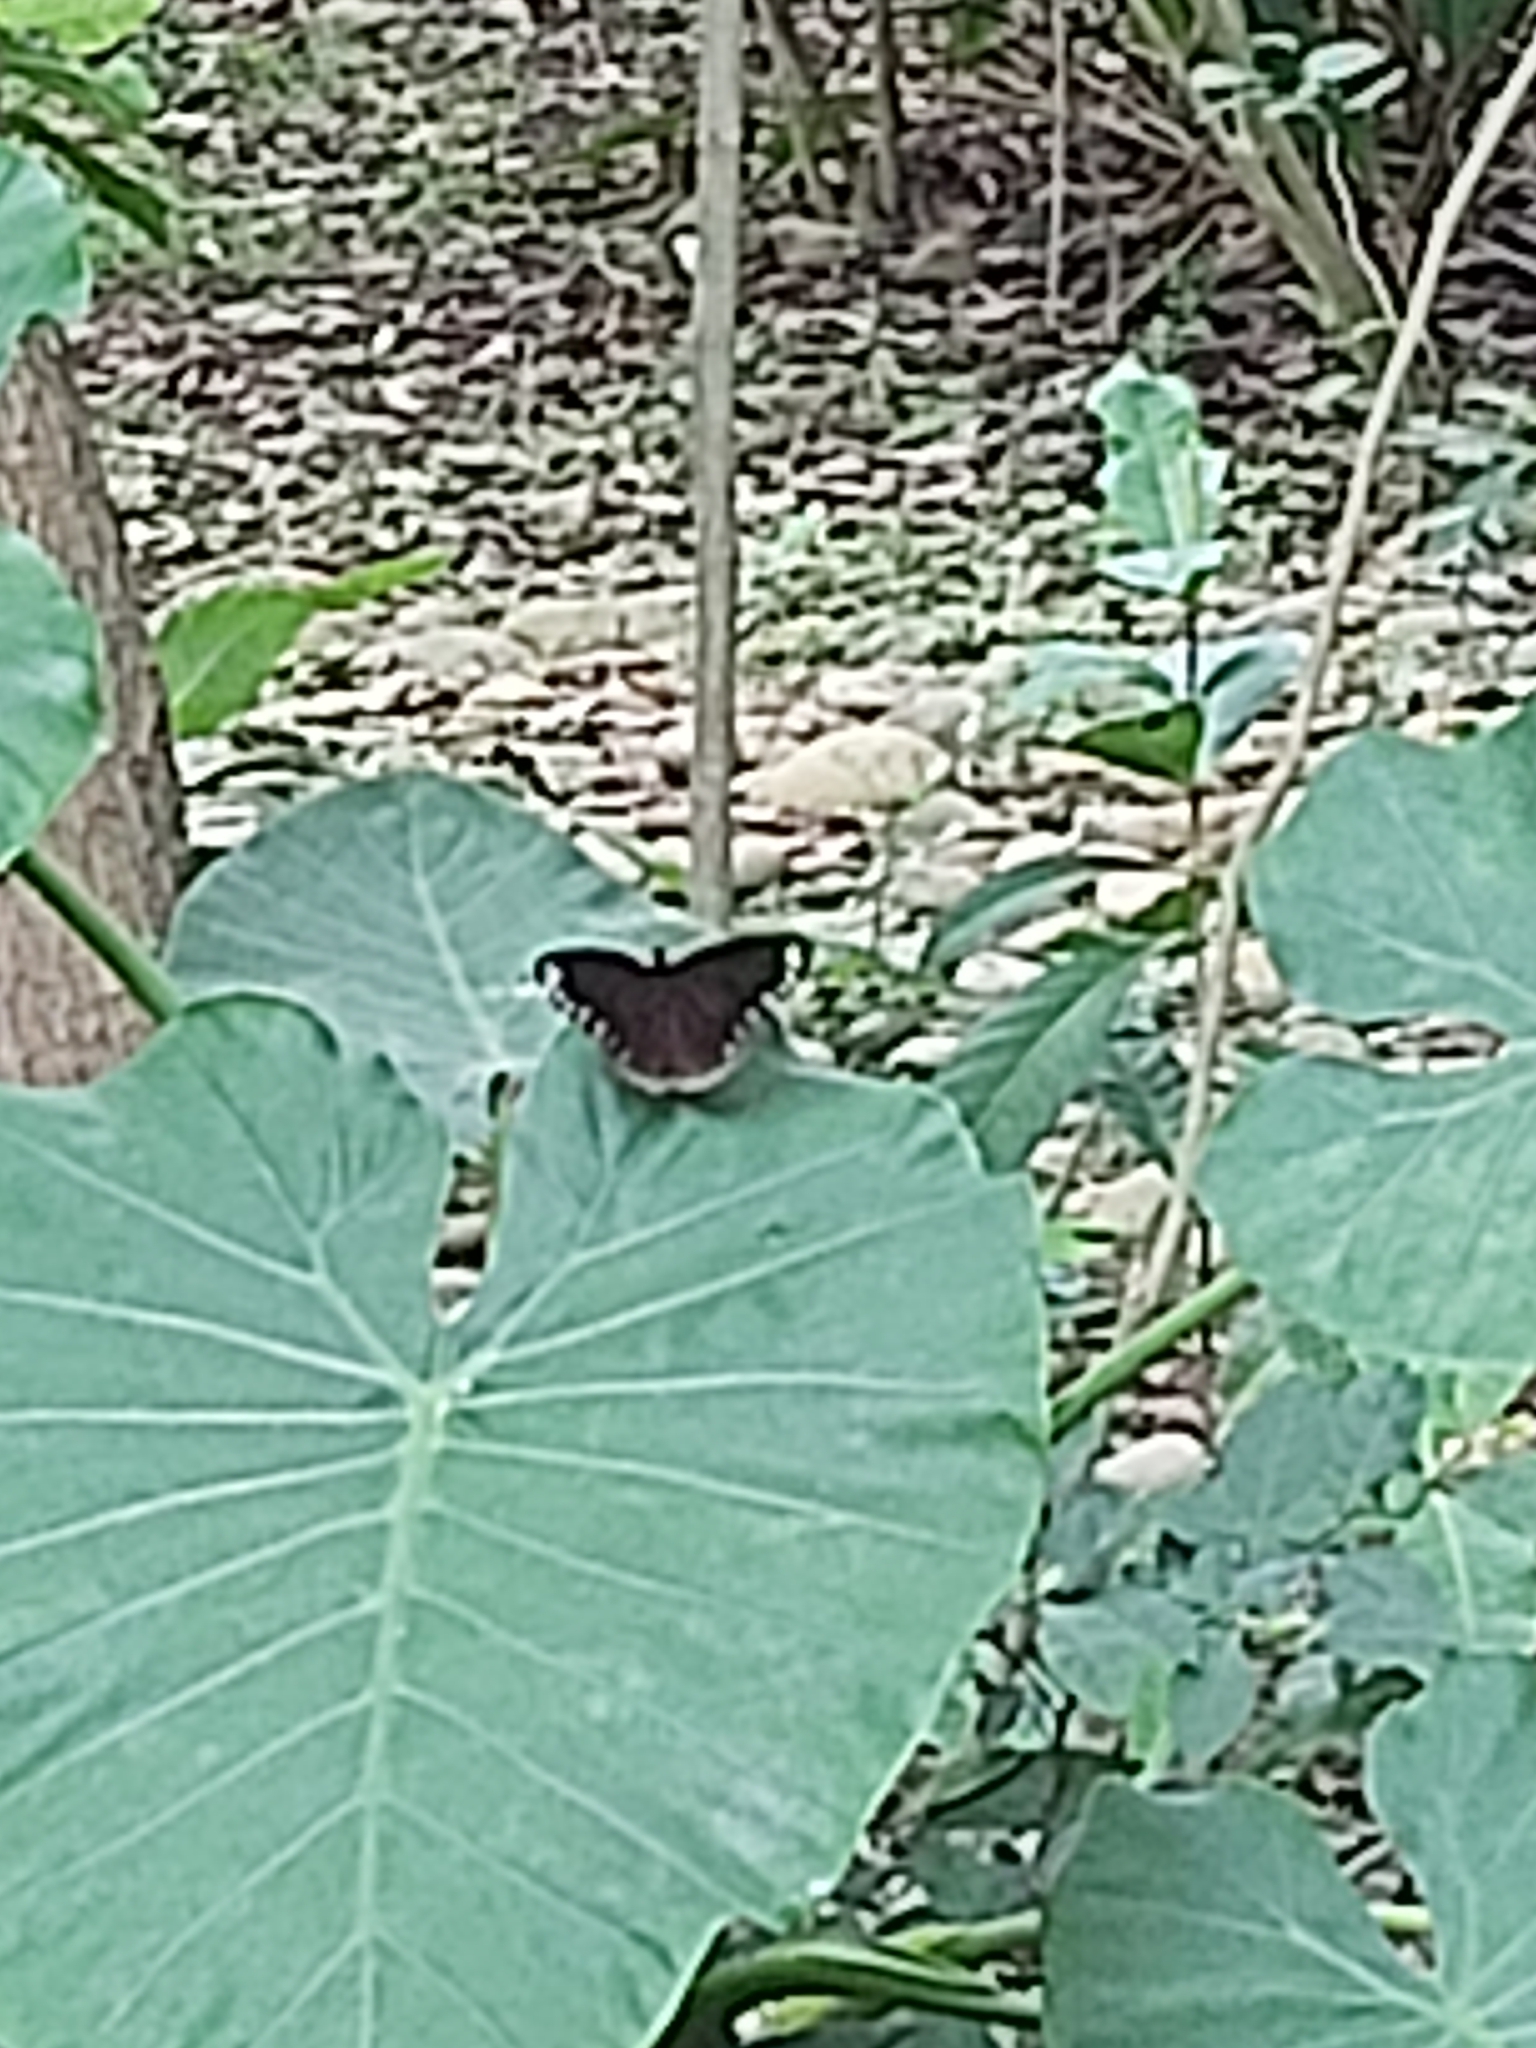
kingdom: Animalia
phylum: Arthropoda
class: Insecta
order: Lepidoptera
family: Nymphalidae
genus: Euploea
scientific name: Euploea sylvester
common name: Double-branded crow butterfly
